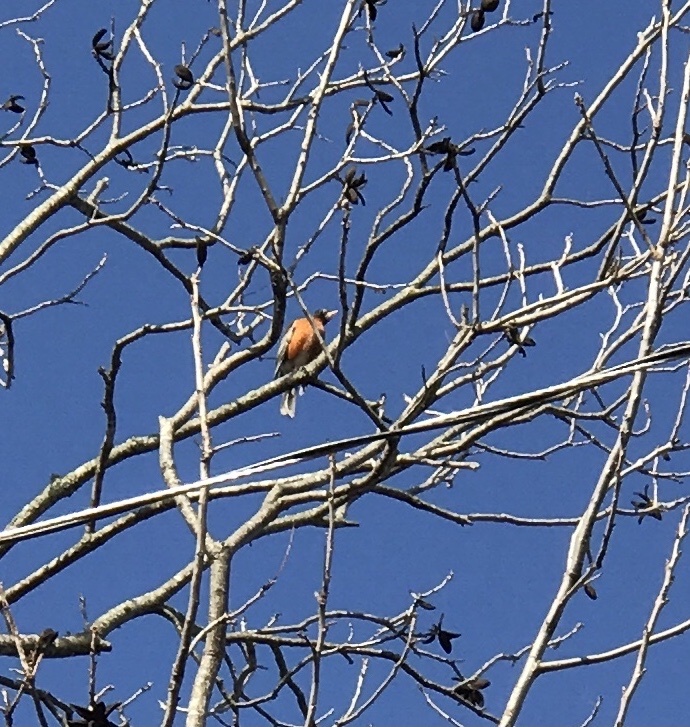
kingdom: Animalia
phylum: Chordata
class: Aves
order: Passeriformes
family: Turdidae
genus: Turdus
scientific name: Turdus migratorius
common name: American robin
